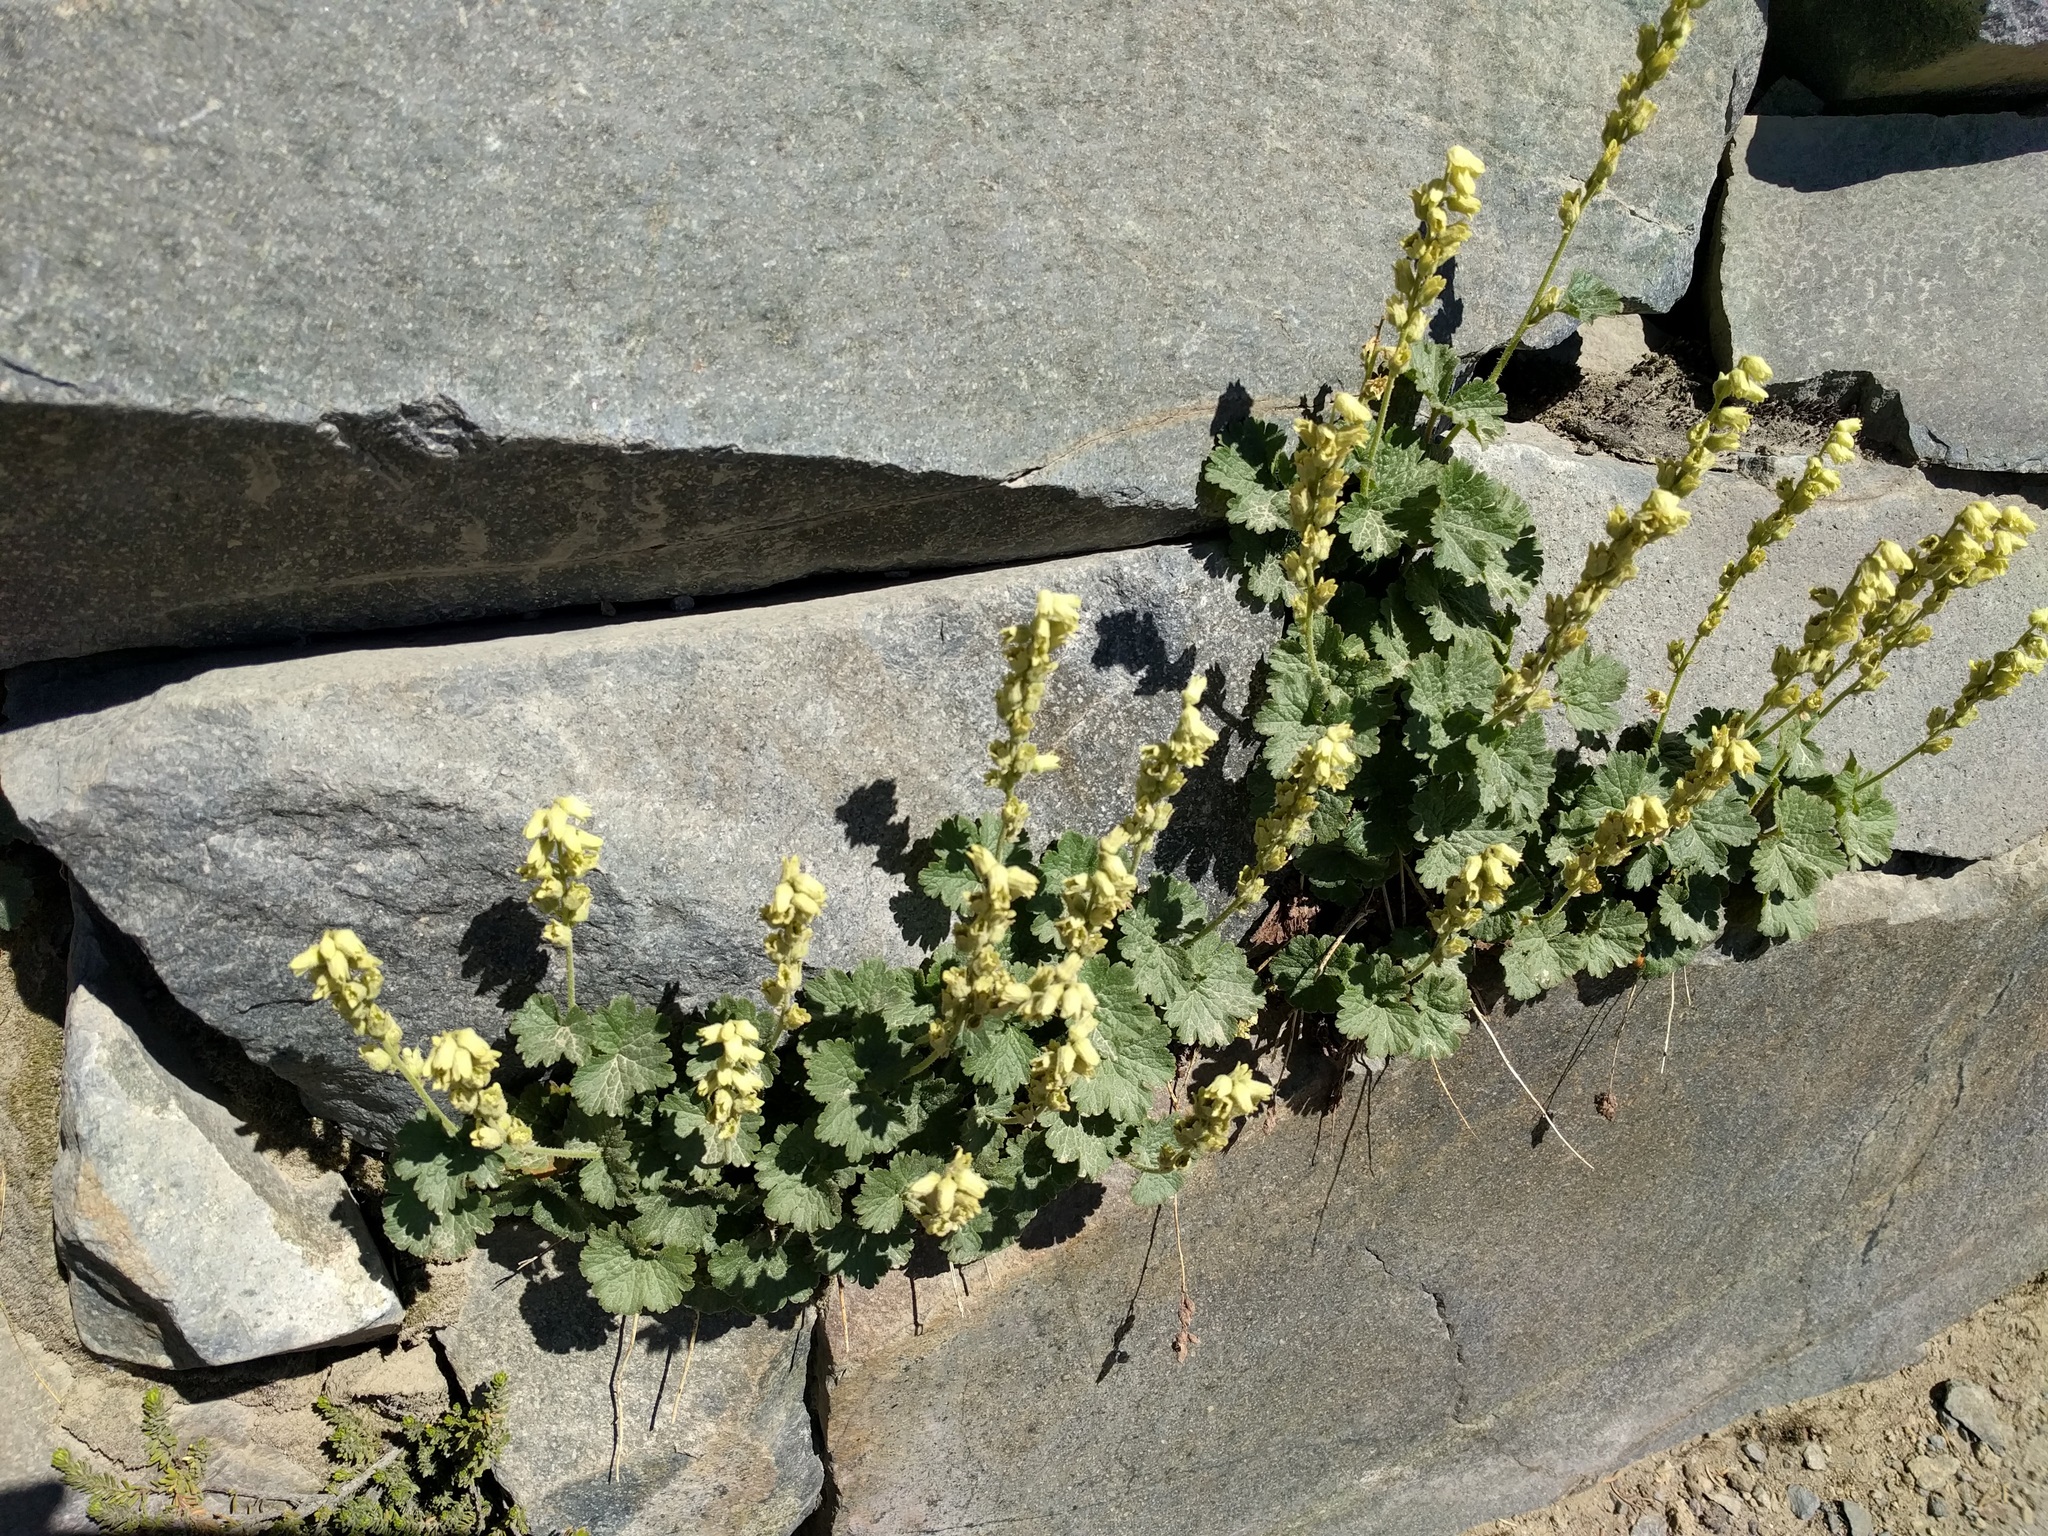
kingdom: Plantae
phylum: Tracheophyta
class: Magnoliopsida
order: Saxifragales
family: Saxifragaceae
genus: Elmera
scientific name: Elmera racemosa
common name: Elmera
